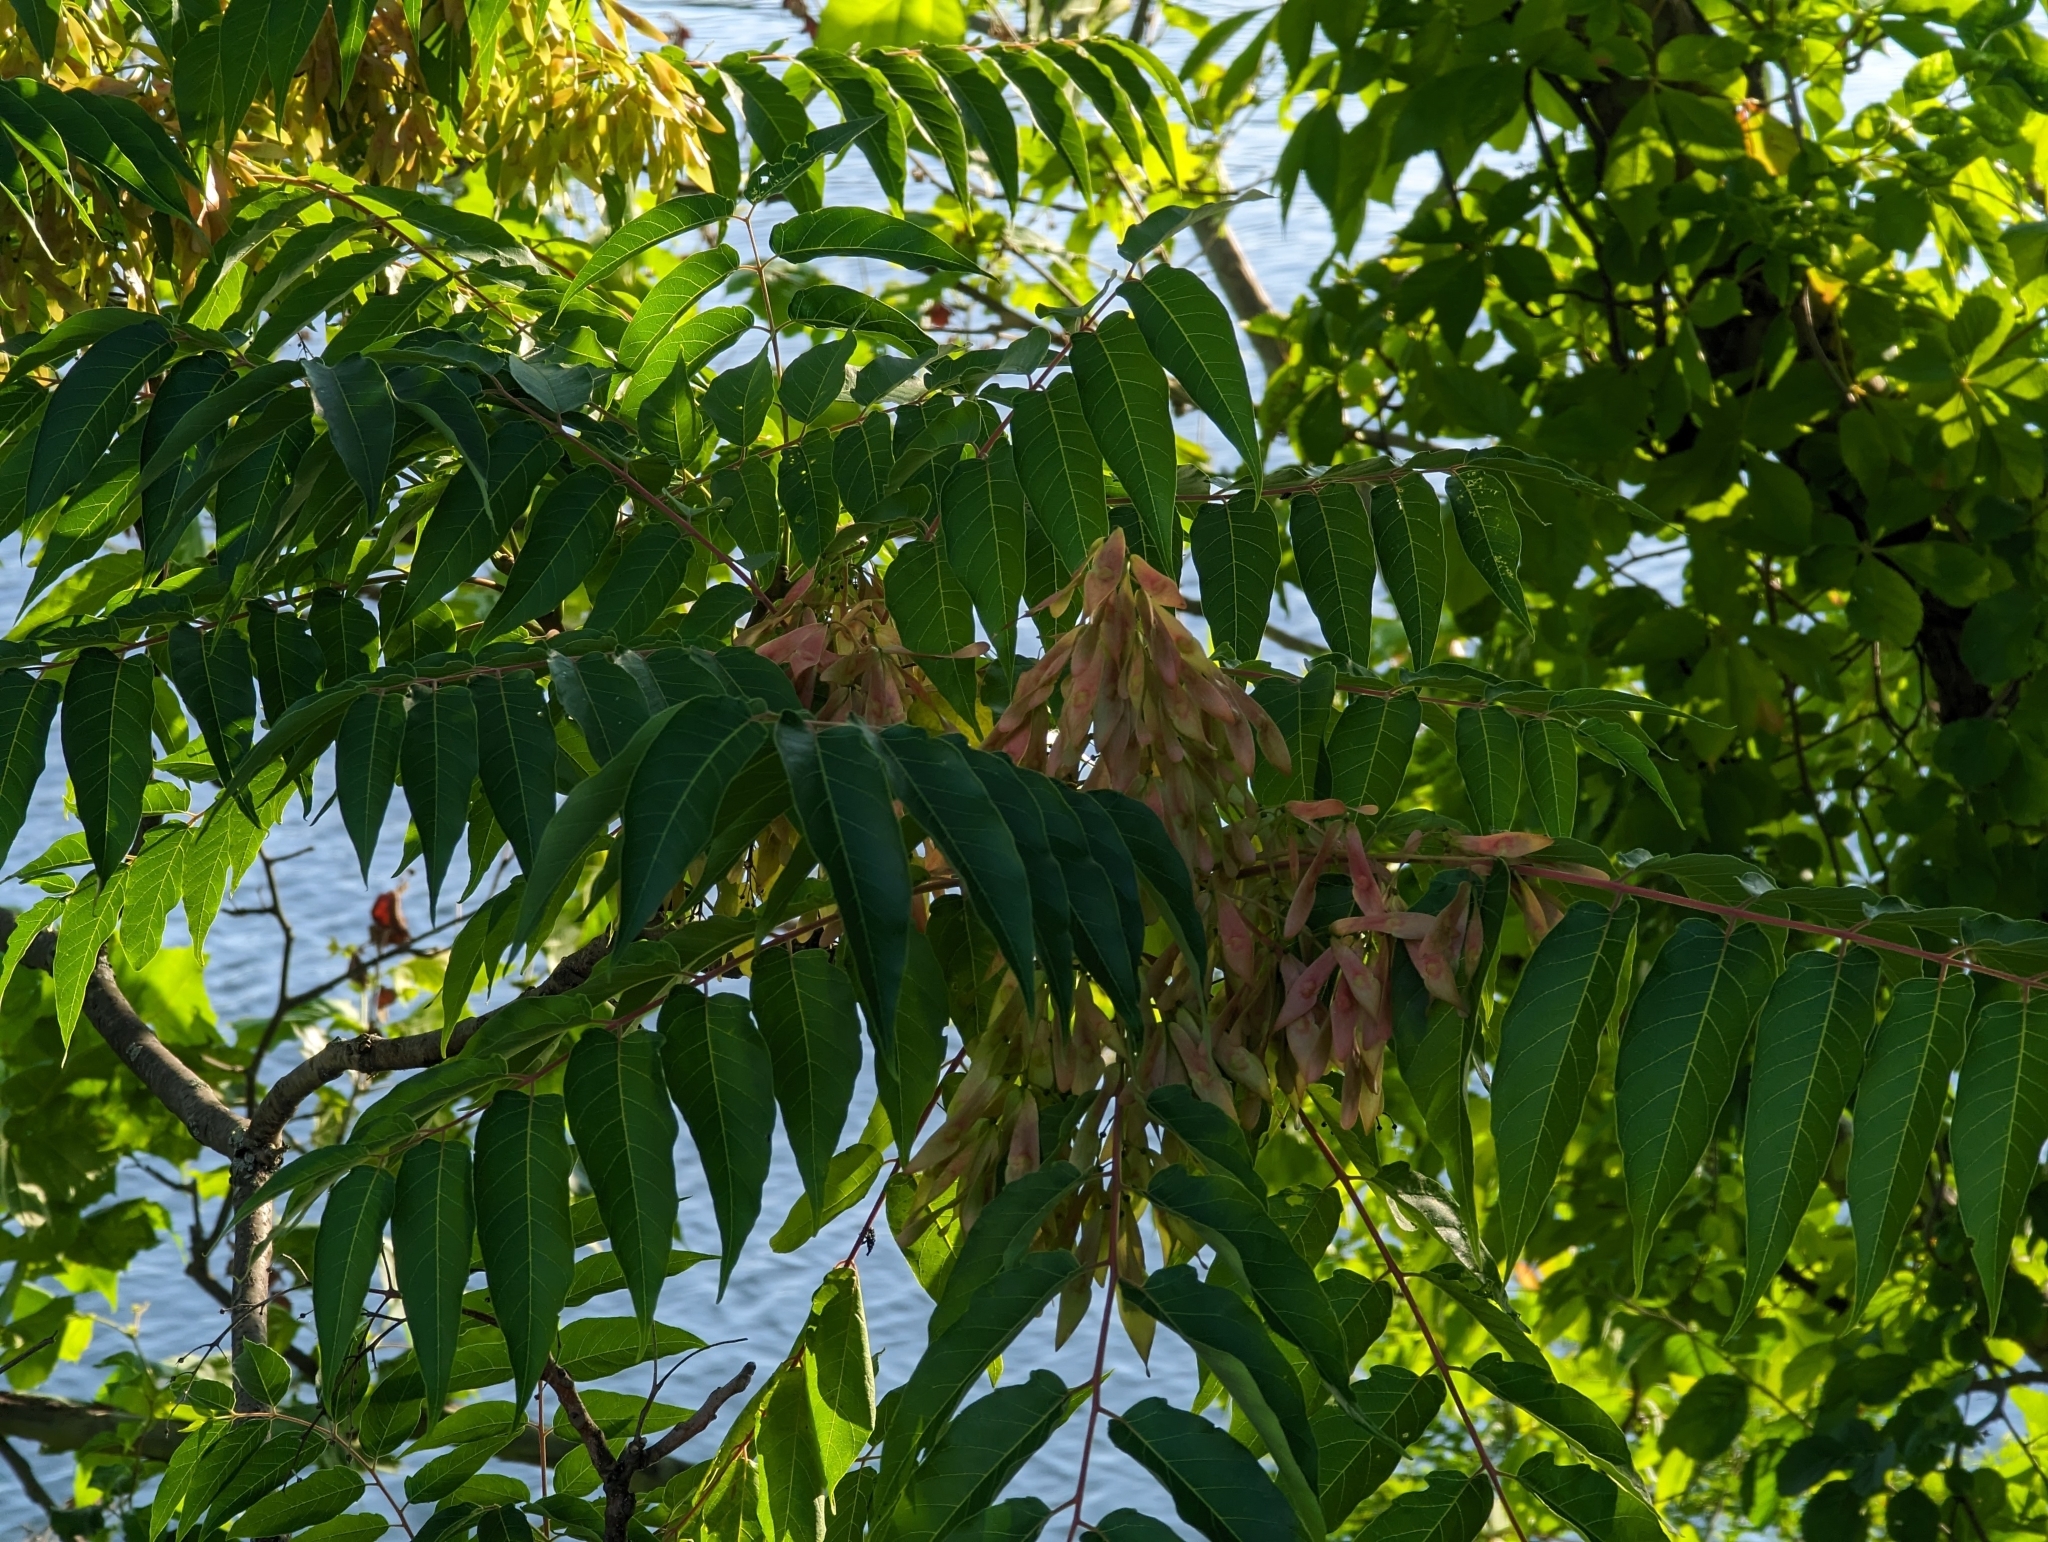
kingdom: Plantae
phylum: Tracheophyta
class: Magnoliopsida
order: Sapindales
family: Simaroubaceae
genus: Ailanthus
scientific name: Ailanthus altissima
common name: Tree-of-heaven
